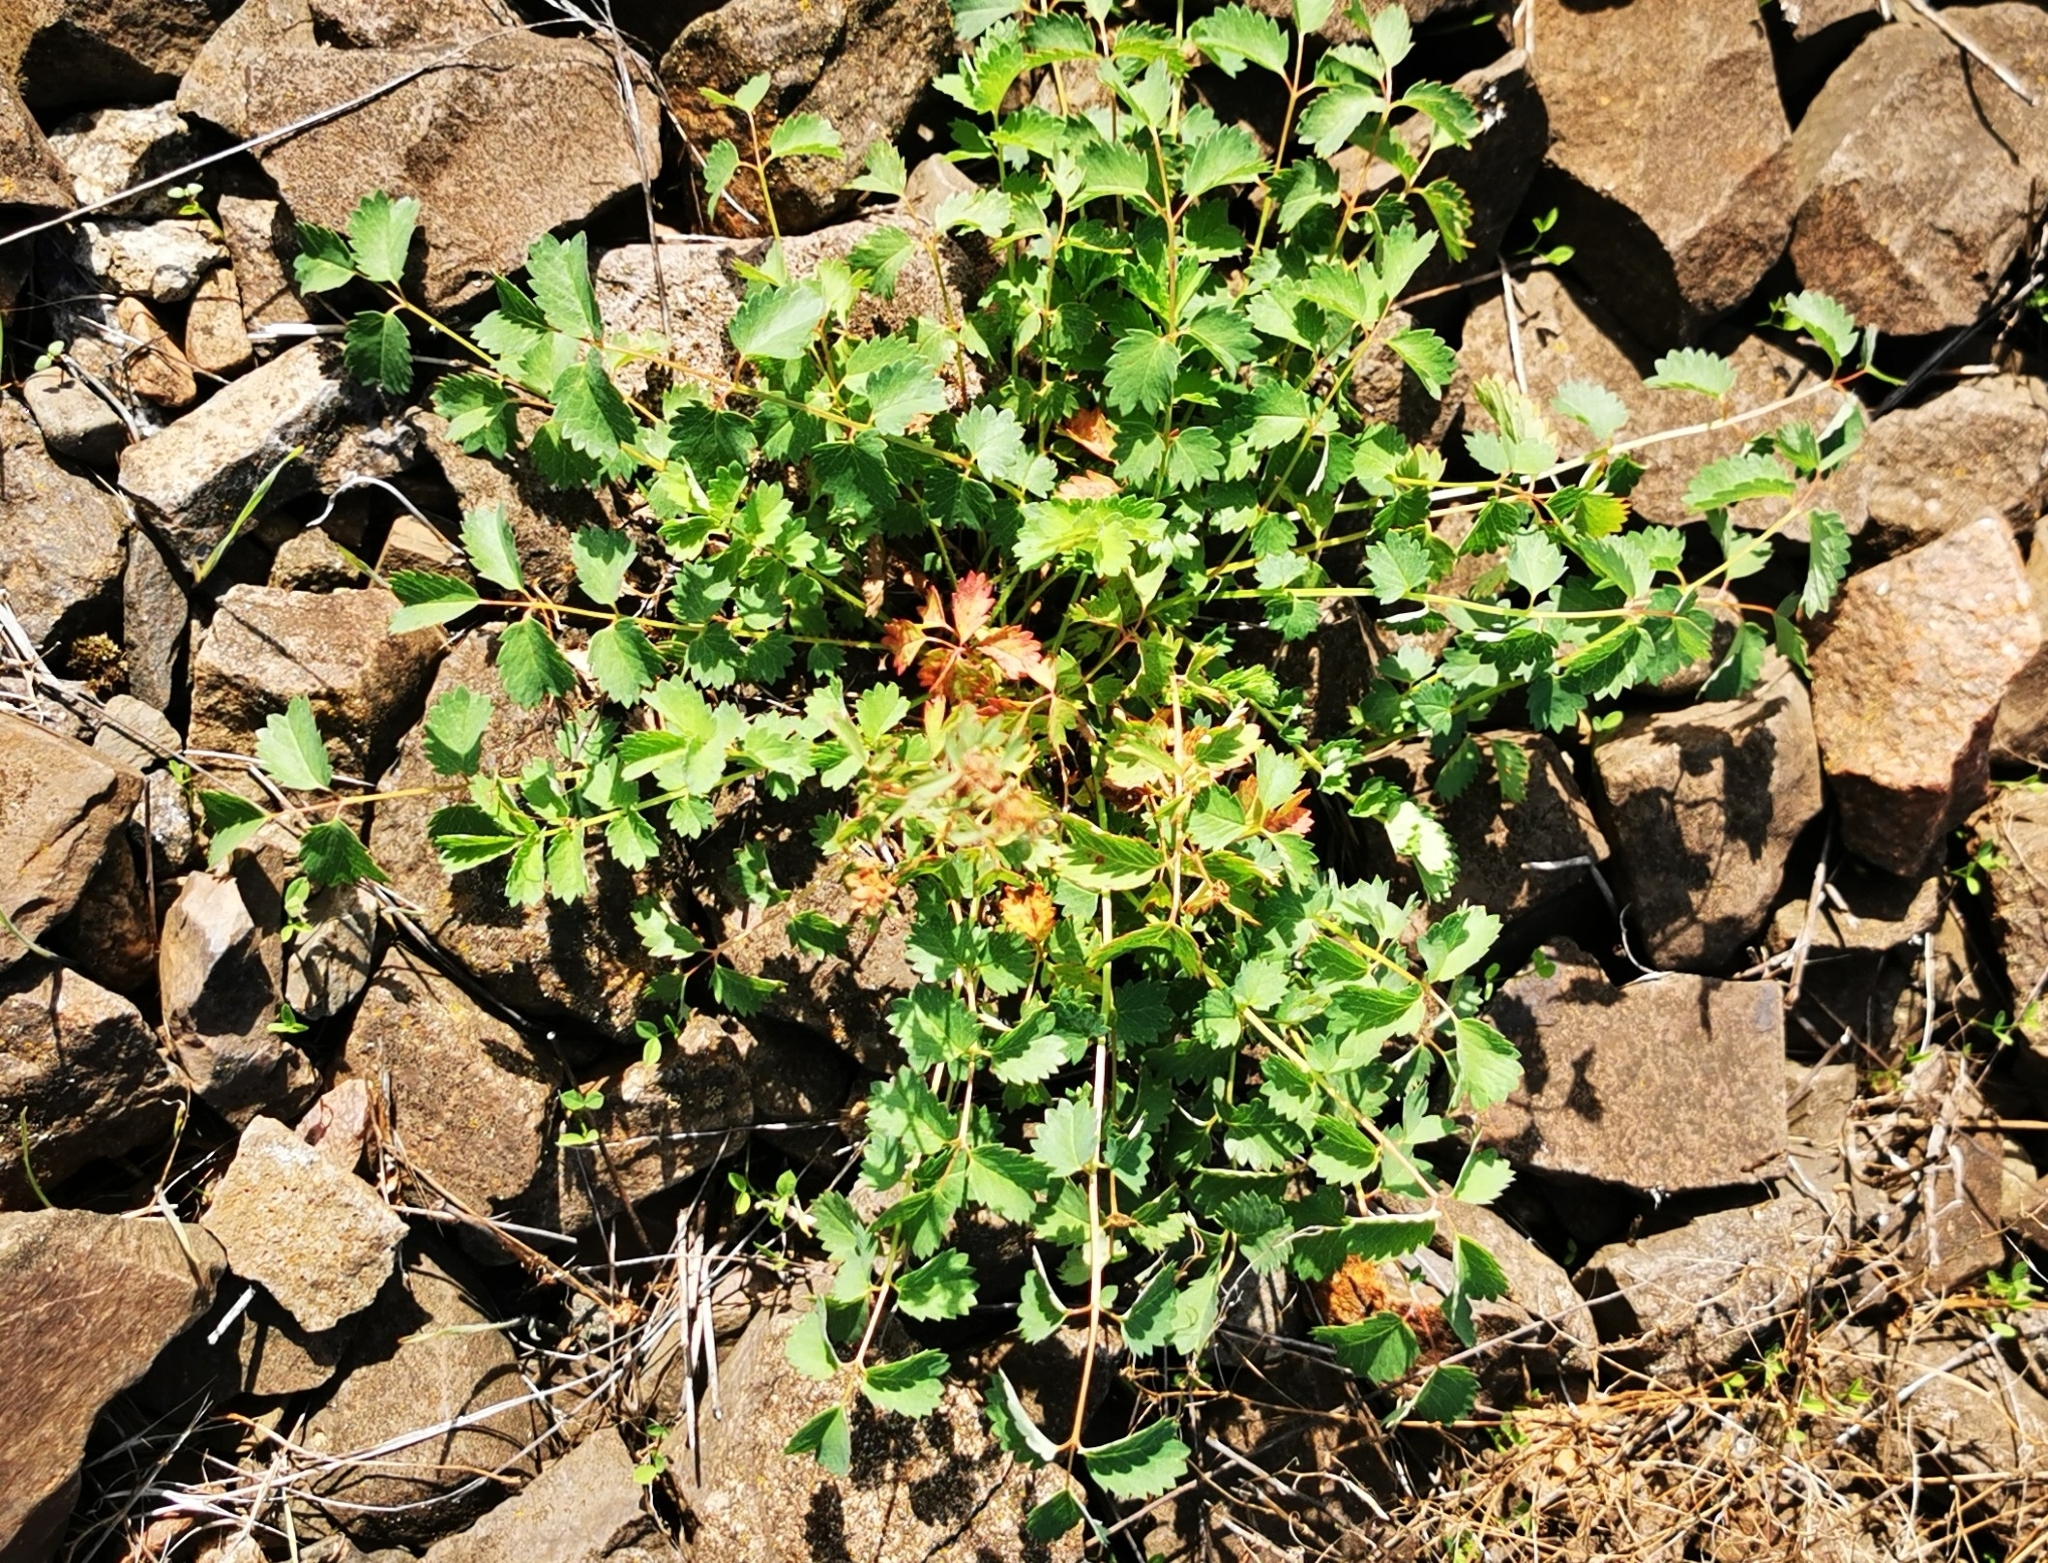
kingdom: Plantae
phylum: Tracheophyta
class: Magnoliopsida
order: Rosales
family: Rosaceae
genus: Poterium
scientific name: Poterium sanguisorba
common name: Salad burnet
